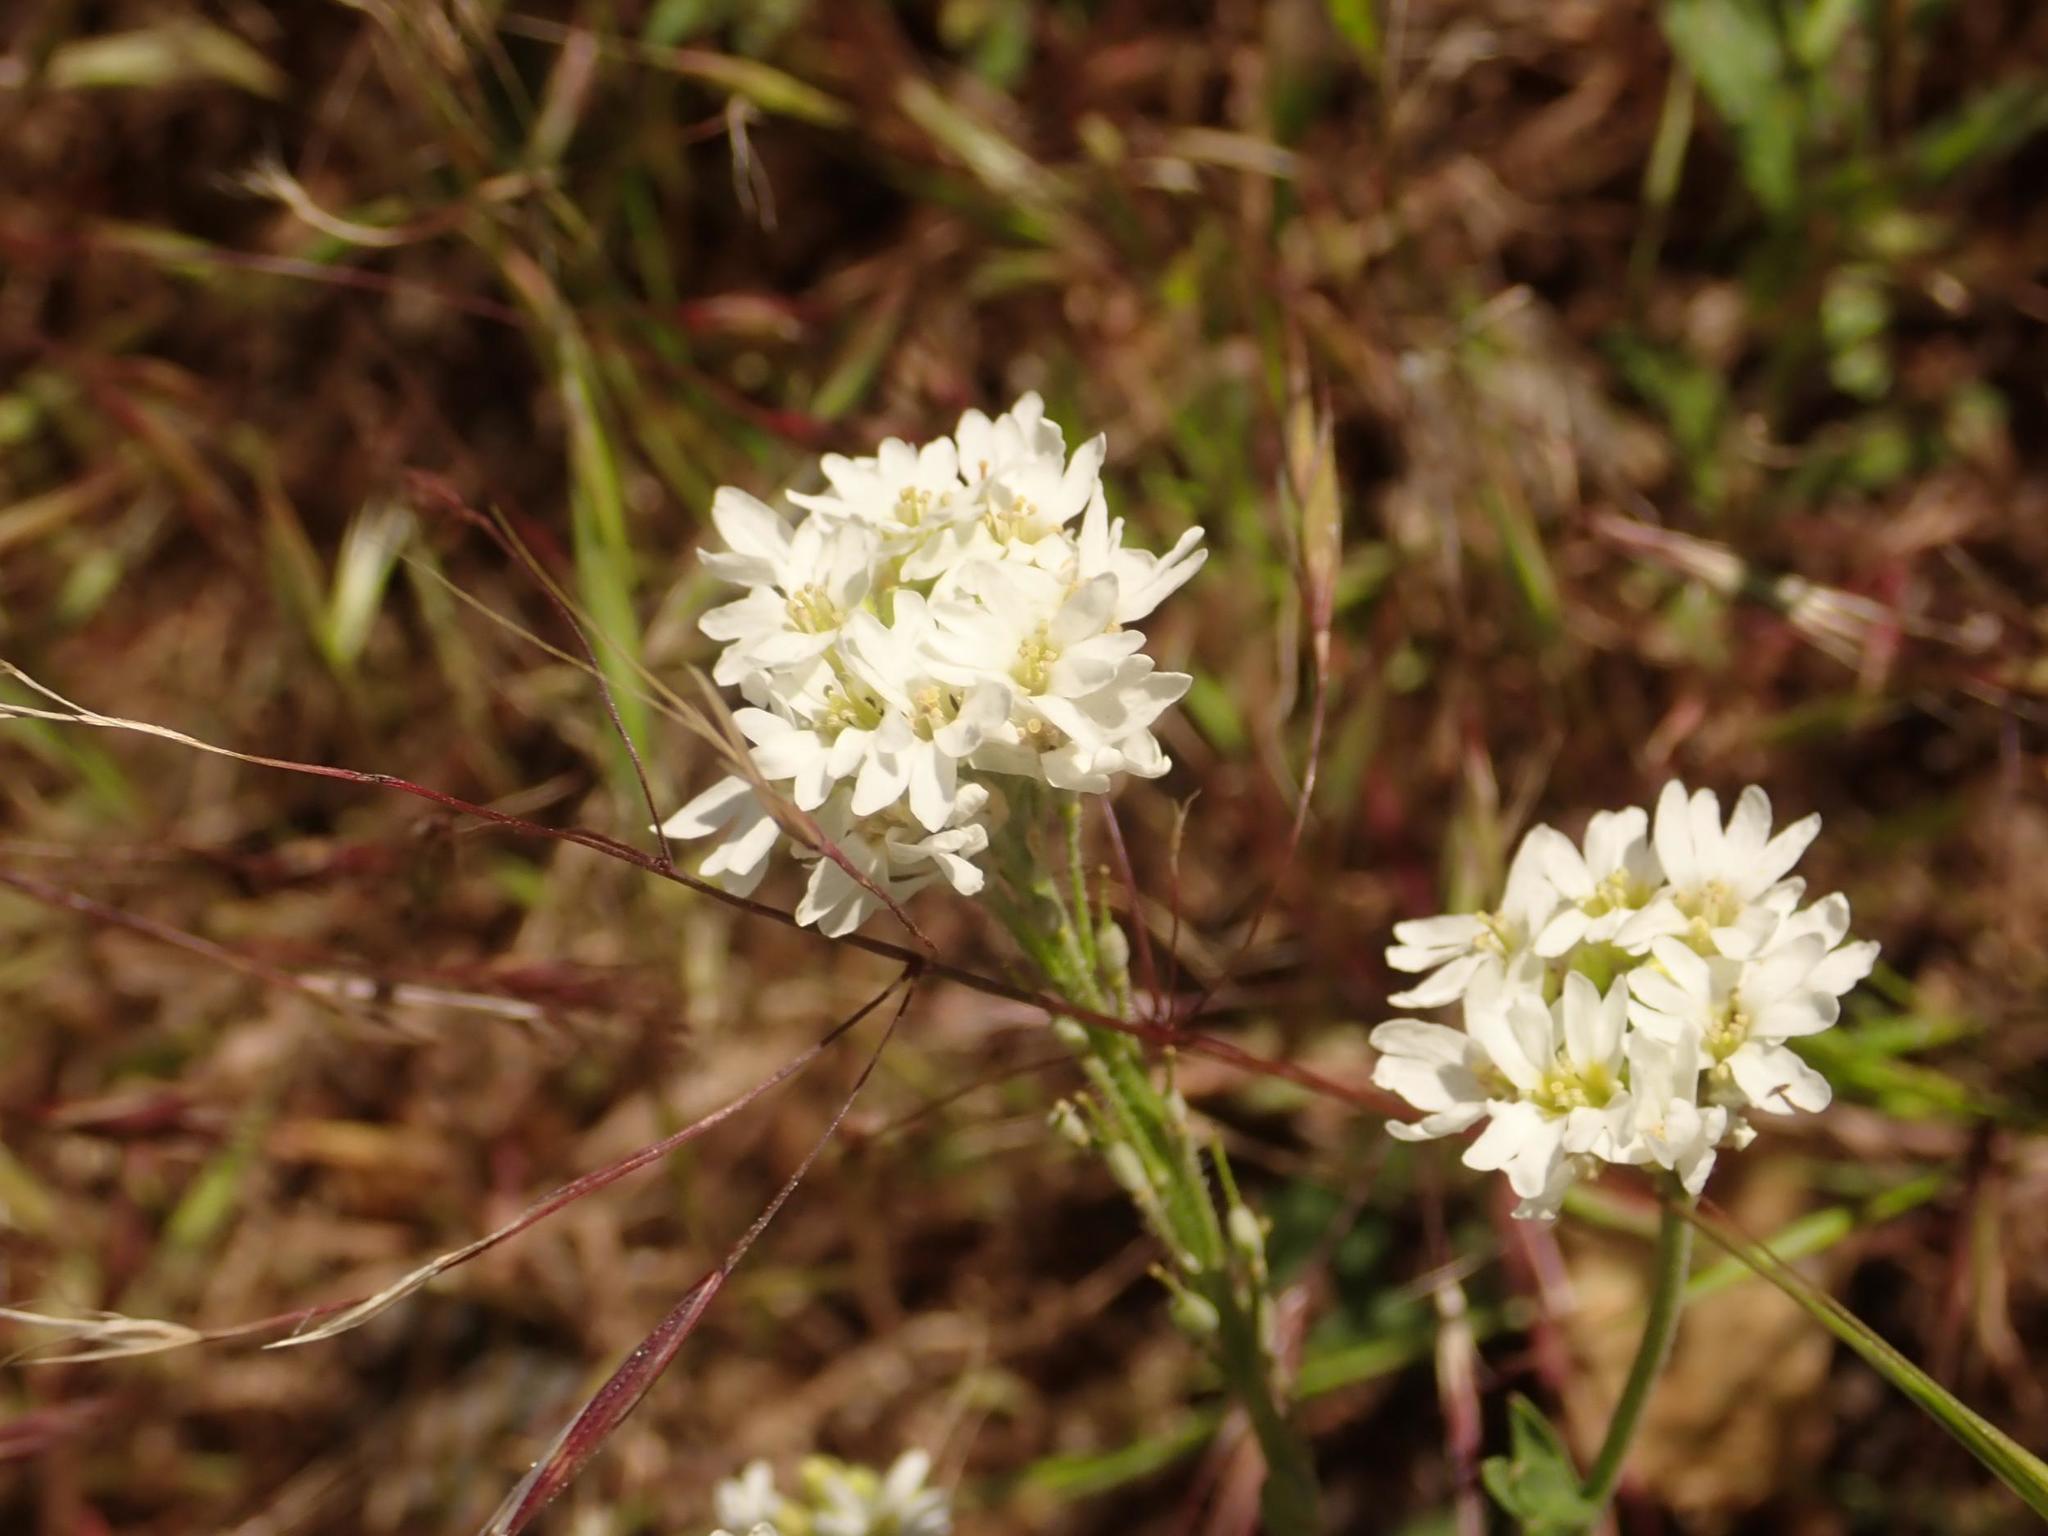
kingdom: Plantae
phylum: Tracheophyta
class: Magnoliopsida
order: Brassicales
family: Brassicaceae
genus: Berteroa
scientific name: Berteroa incana
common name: Hoary alison
